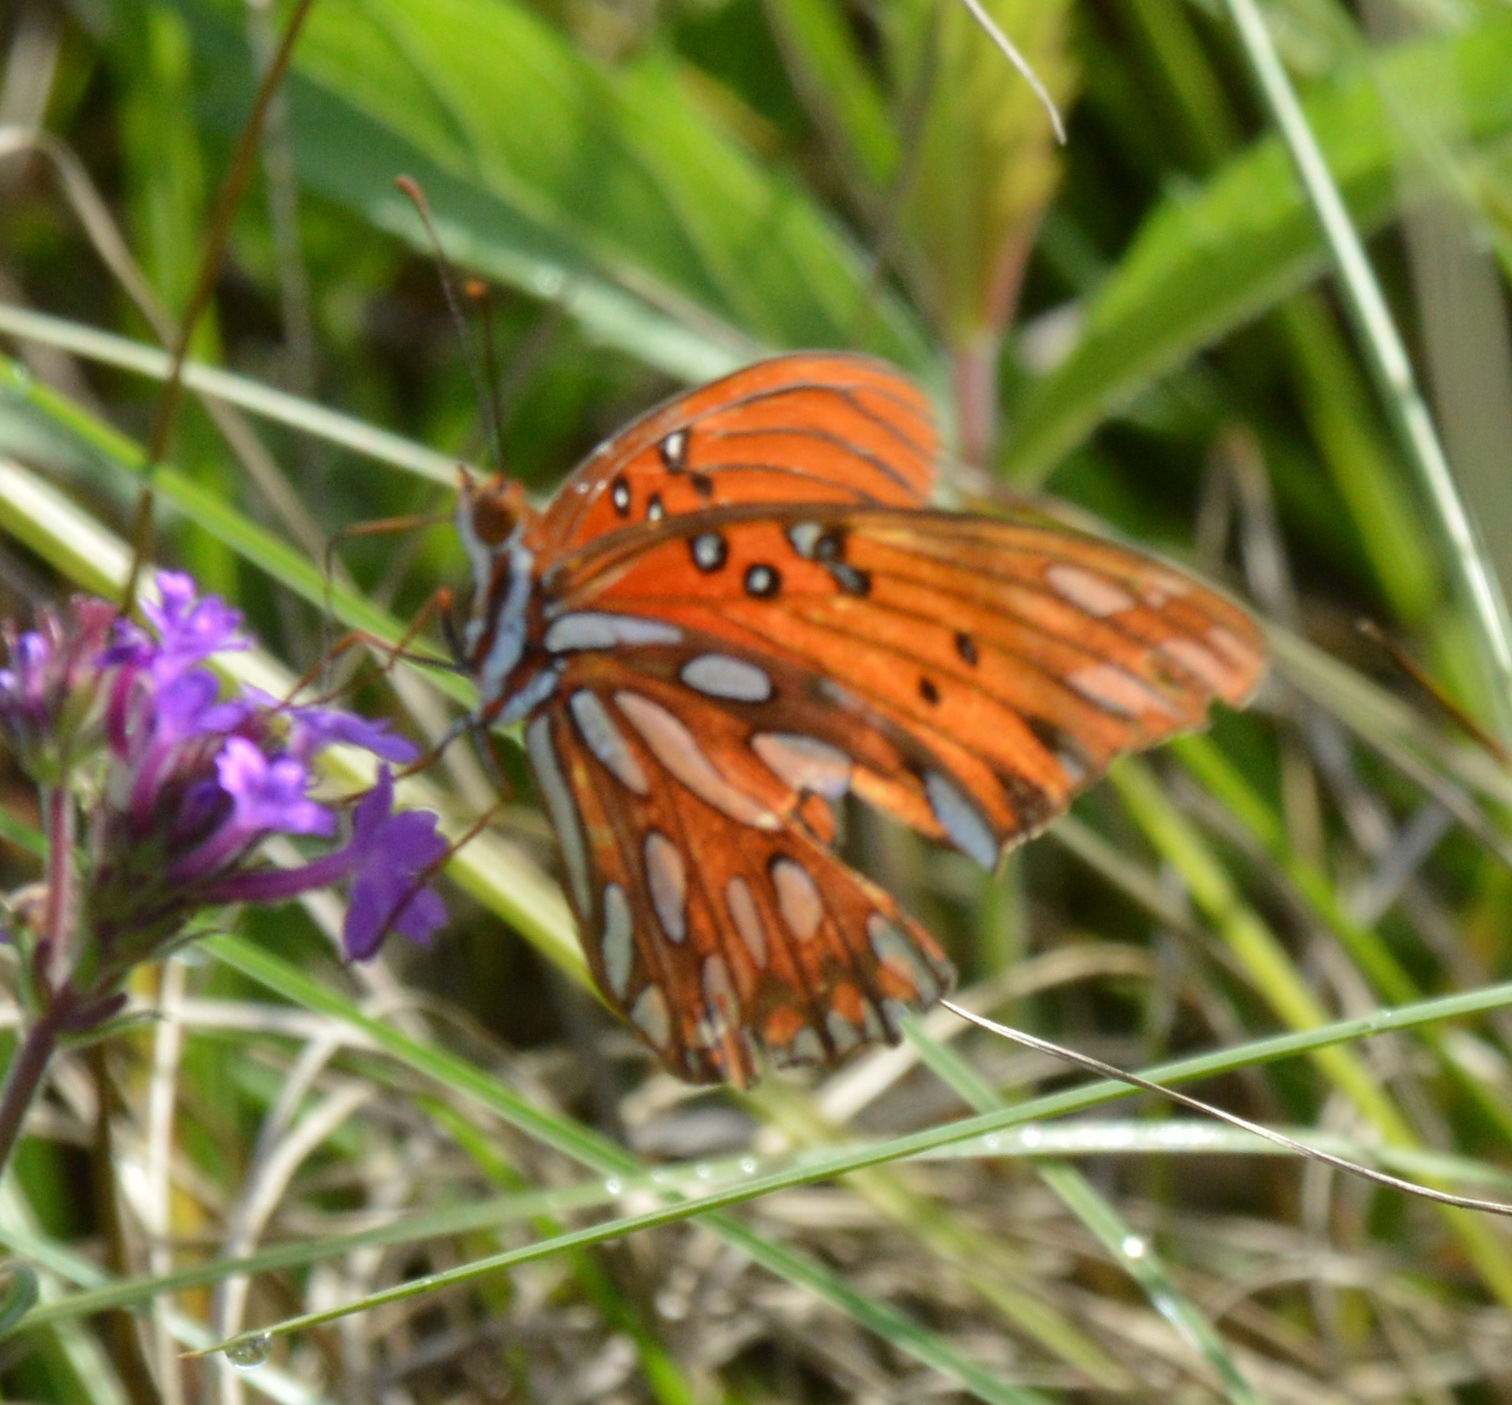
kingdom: Animalia
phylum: Arthropoda
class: Insecta
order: Lepidoptera
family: Nymphalidae
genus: Dione
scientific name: Dione vanillae
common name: Gulf fritillary
